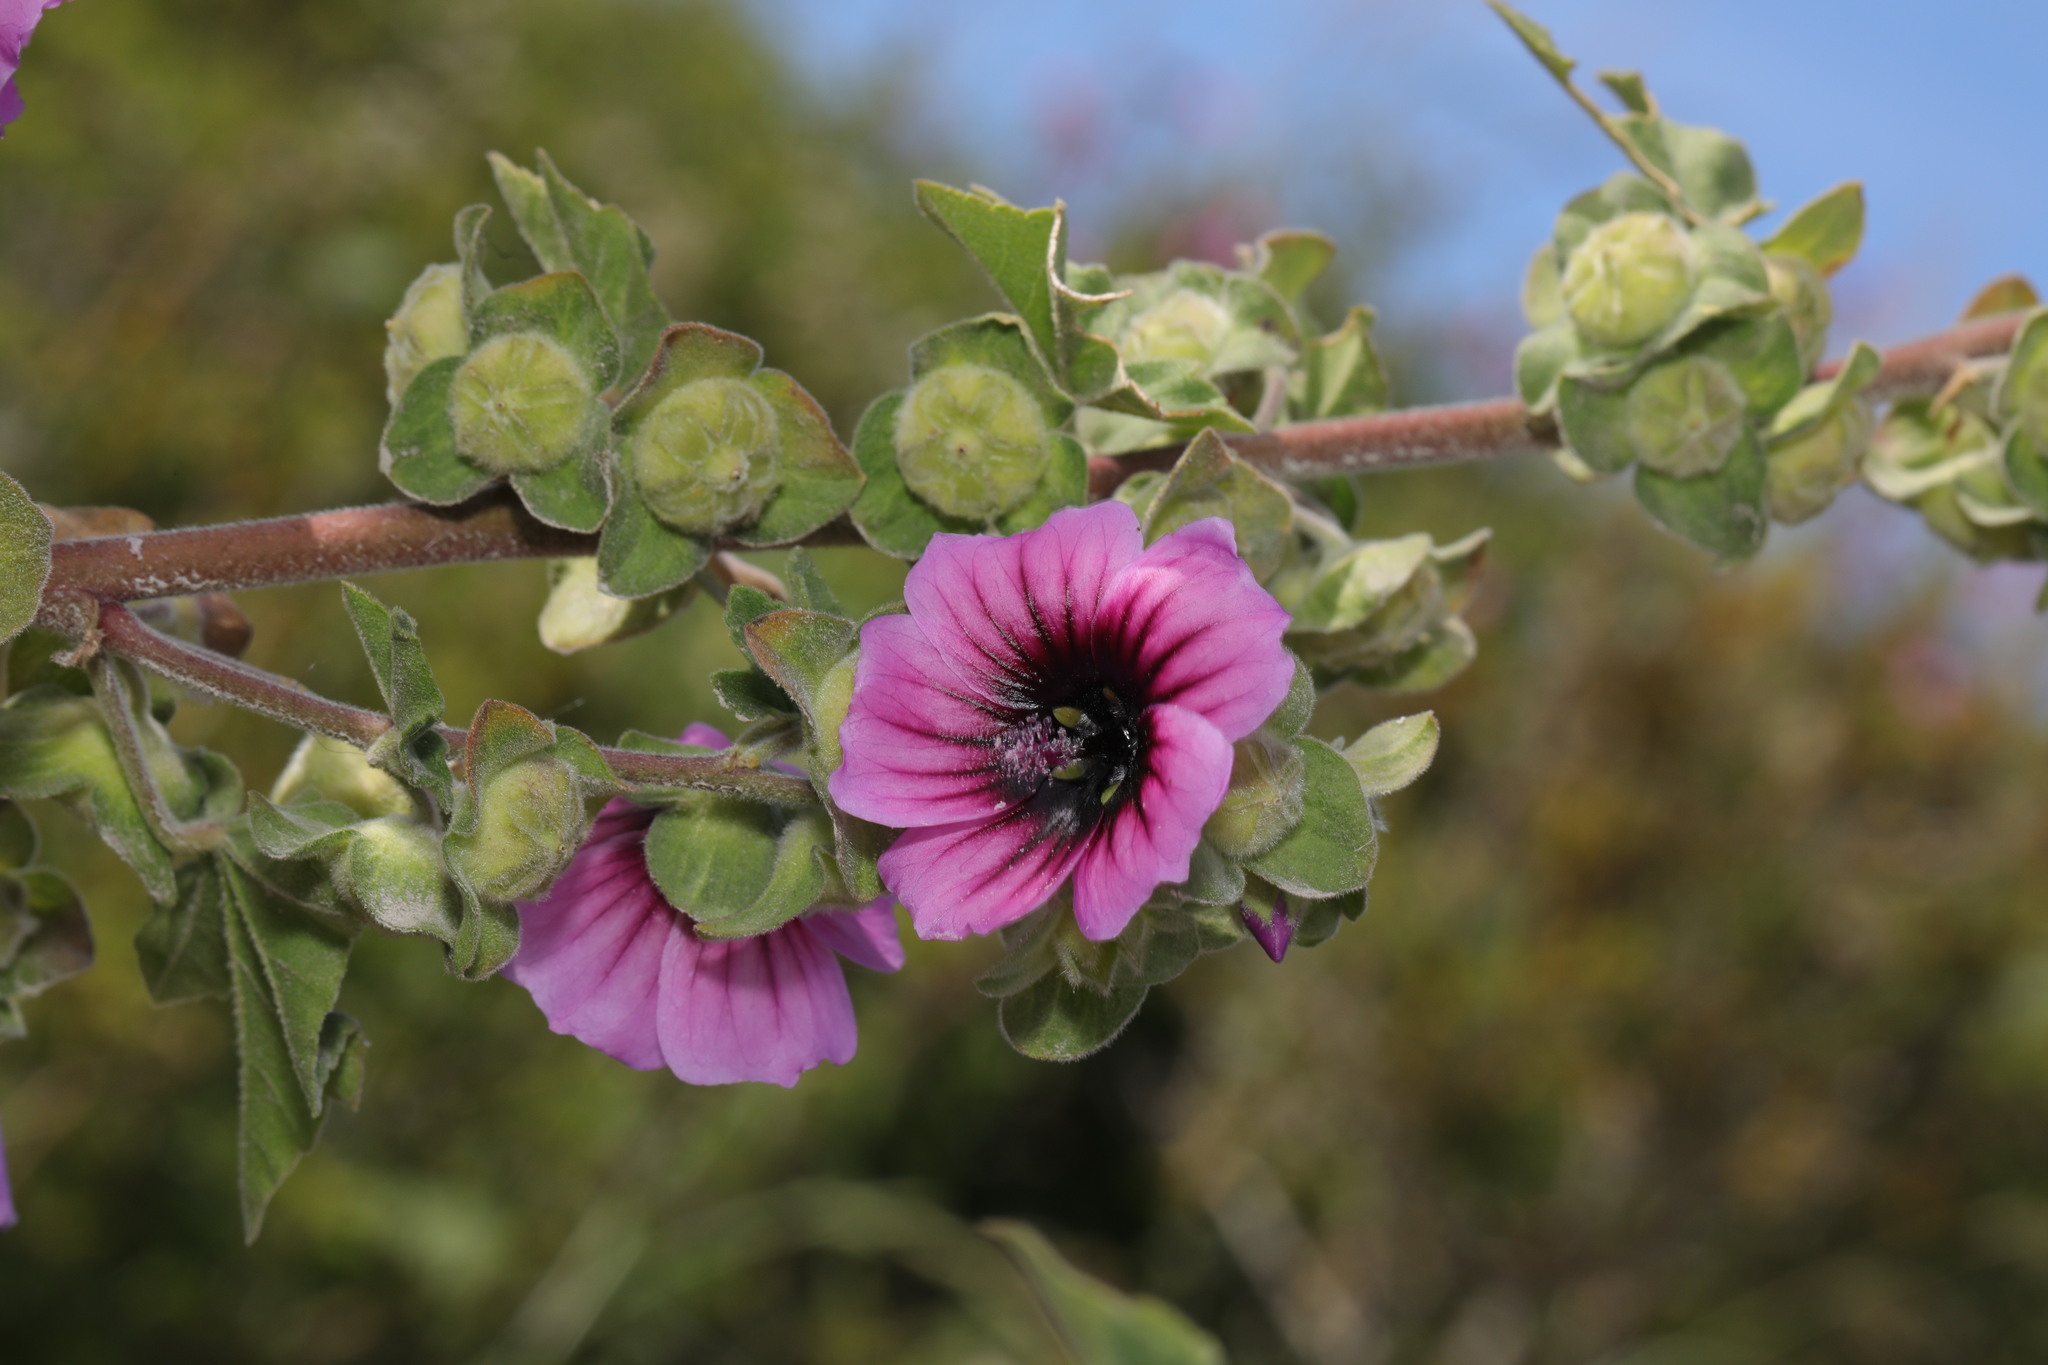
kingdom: Plantae
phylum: Tracheophyta
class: Magnoliopsida
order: Malvales
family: Malvaceae
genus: Malva
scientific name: Malva arborea
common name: Tree mallow
